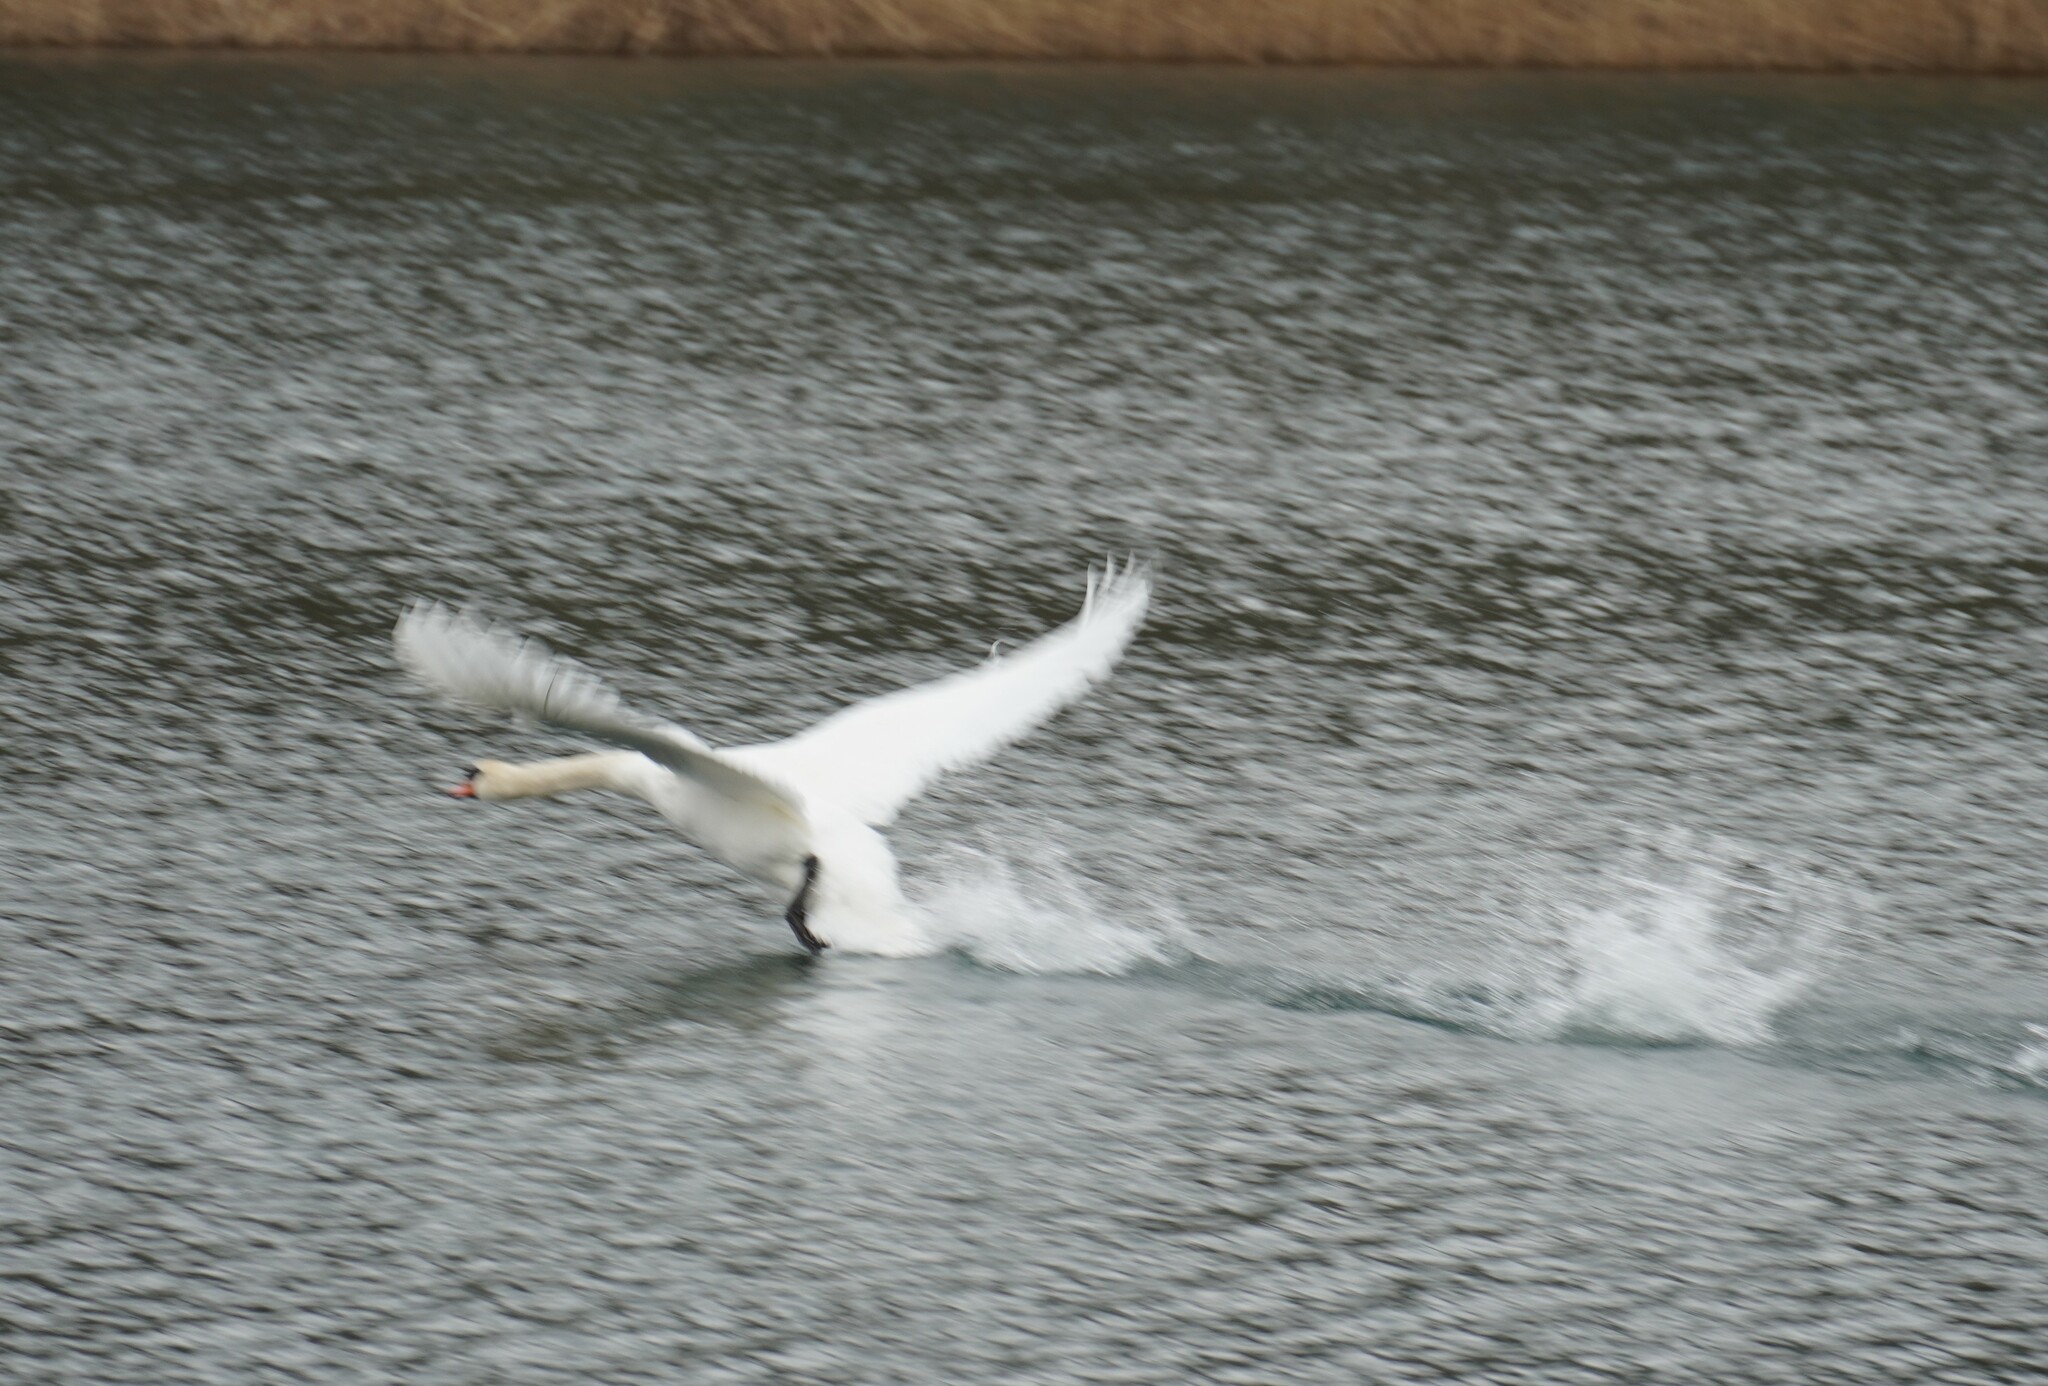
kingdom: Animalia
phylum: Chordata
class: Aves
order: Anseriformes
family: Anatidae
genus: Cygnus
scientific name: Cygnus olor
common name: Mute swan
